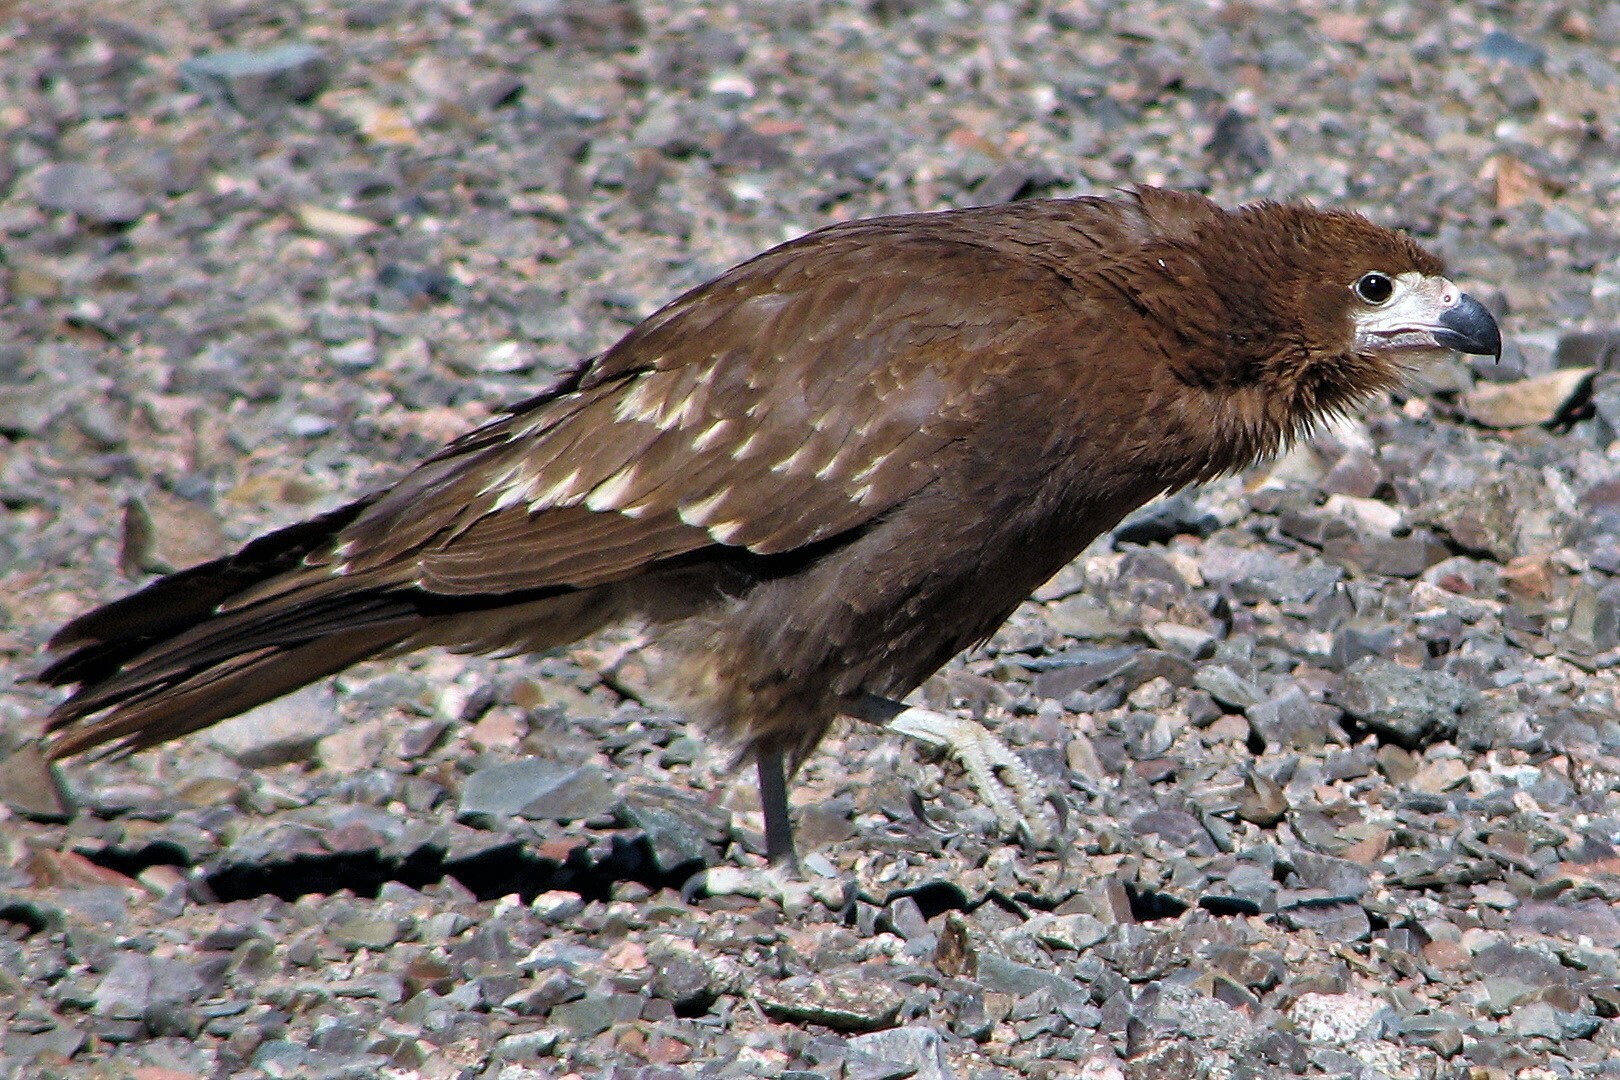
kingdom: Animalia
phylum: Chordata
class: Aves
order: Falconiformes
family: Falconidae
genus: Daptrius
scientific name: Daptrius
